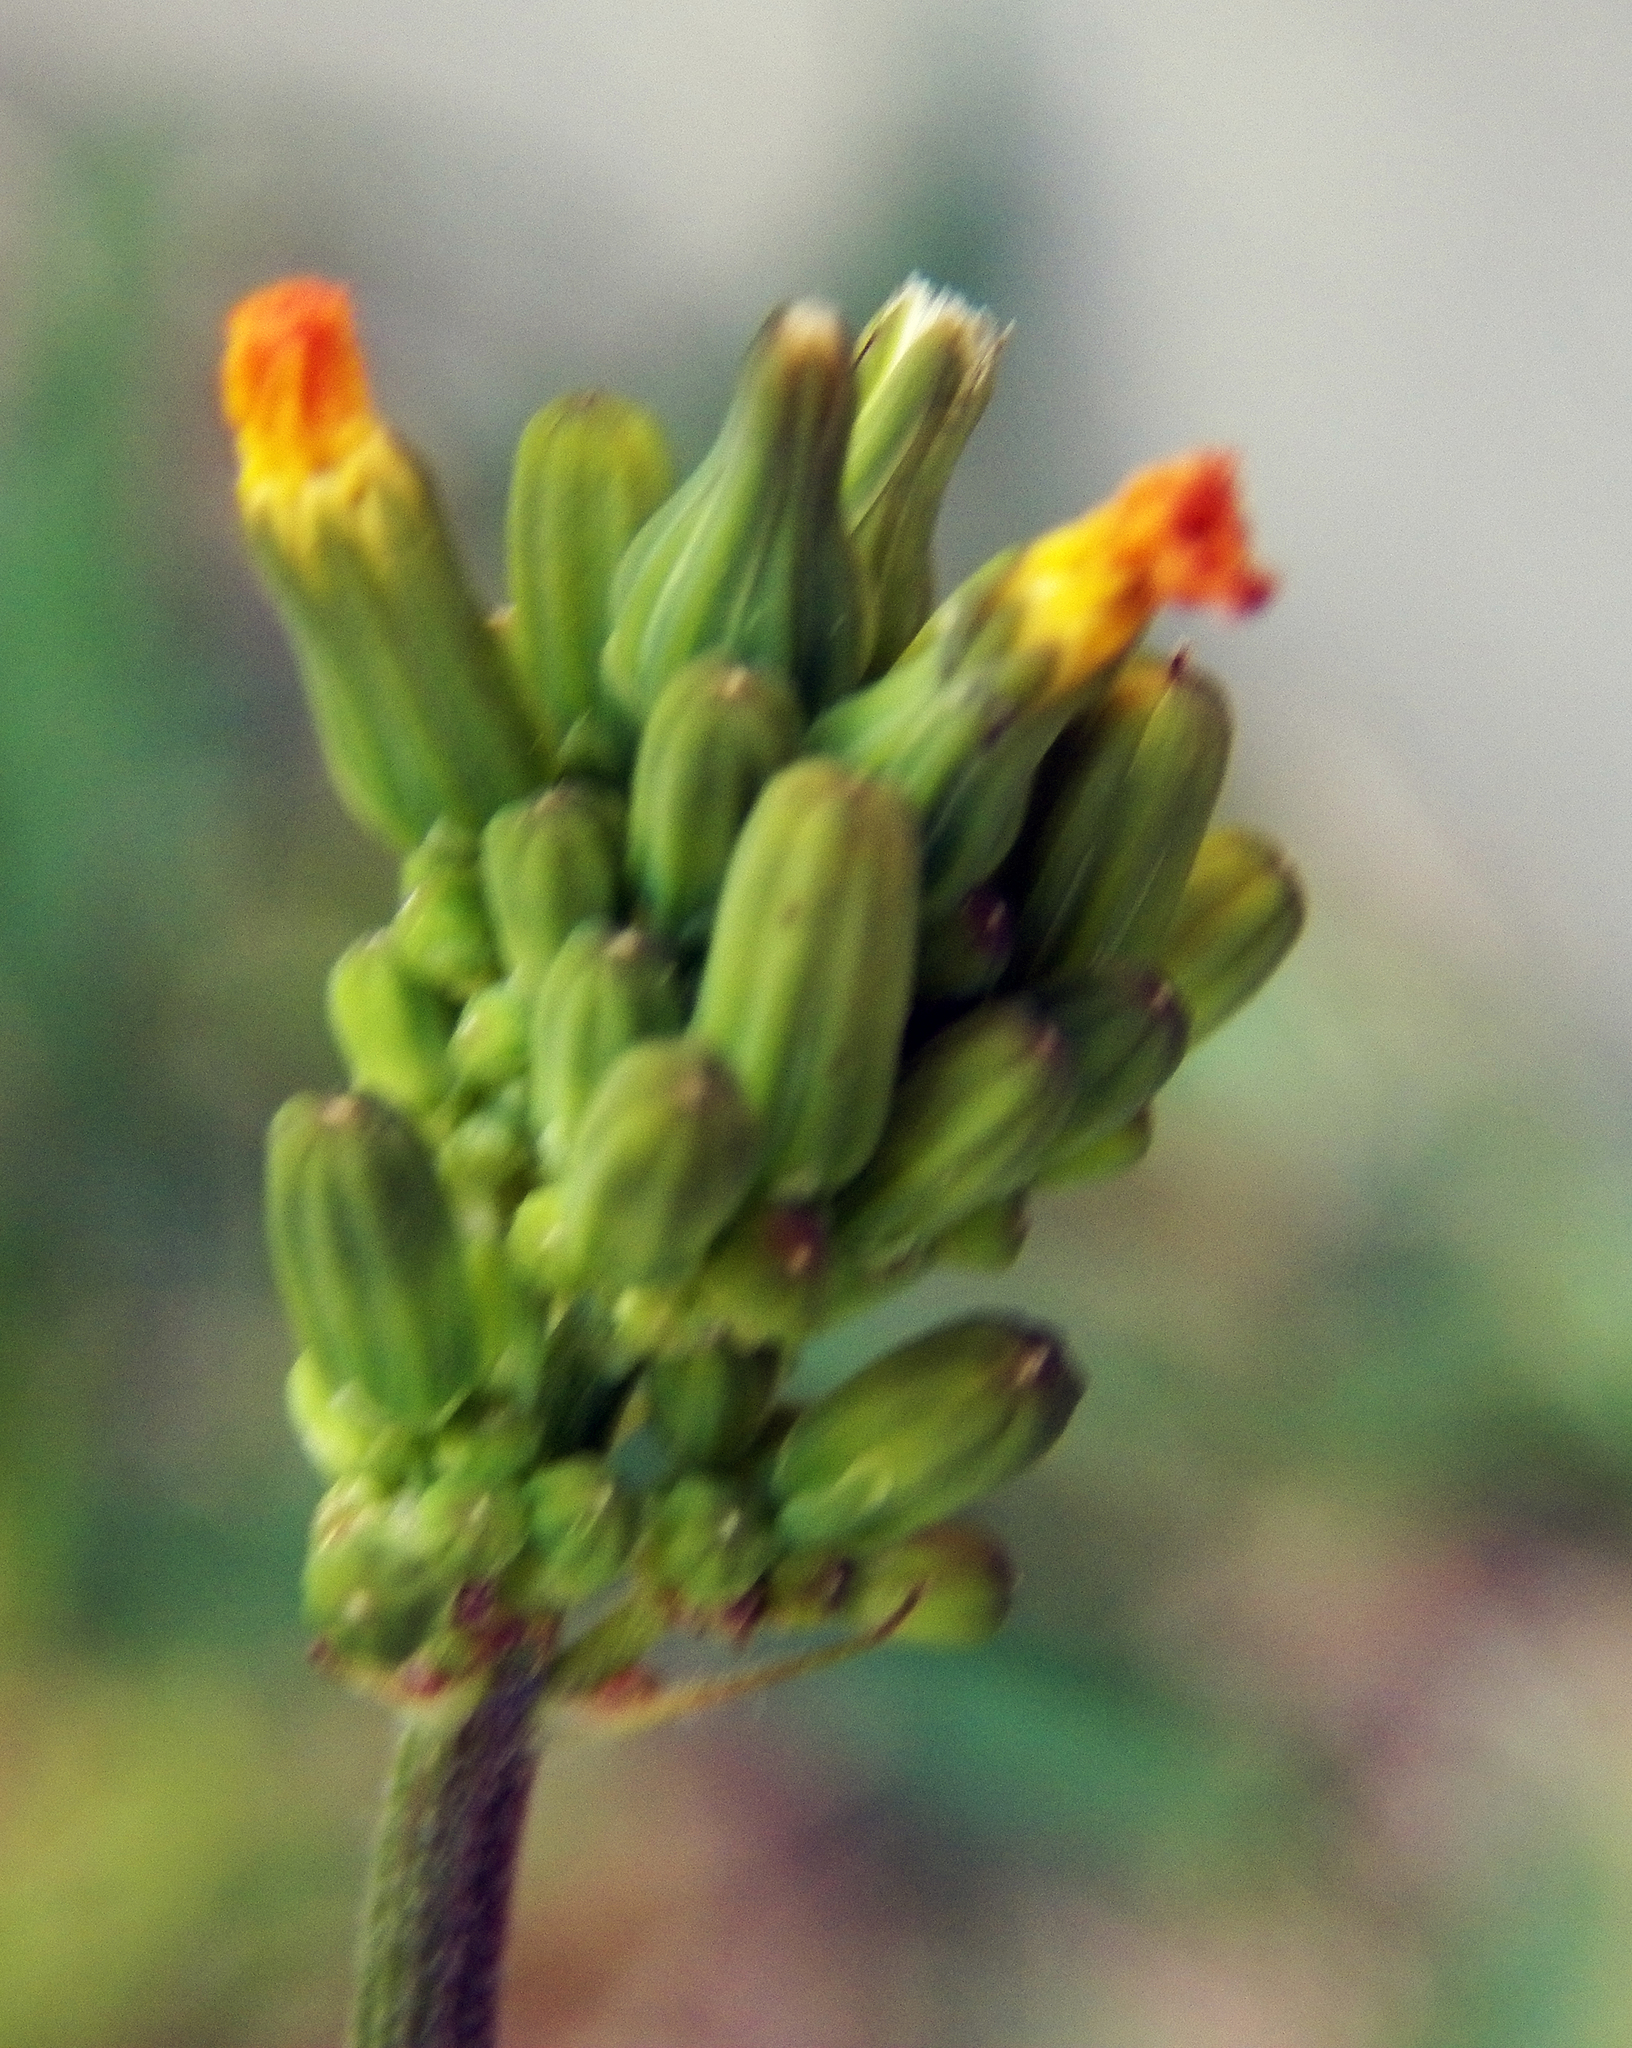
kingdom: Plantae
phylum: Tracheophyta
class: Magnoliopsida
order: Asterales
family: Asteraceae
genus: Youngia
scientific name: Youngia japonica
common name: Oriental false hawksbeard
